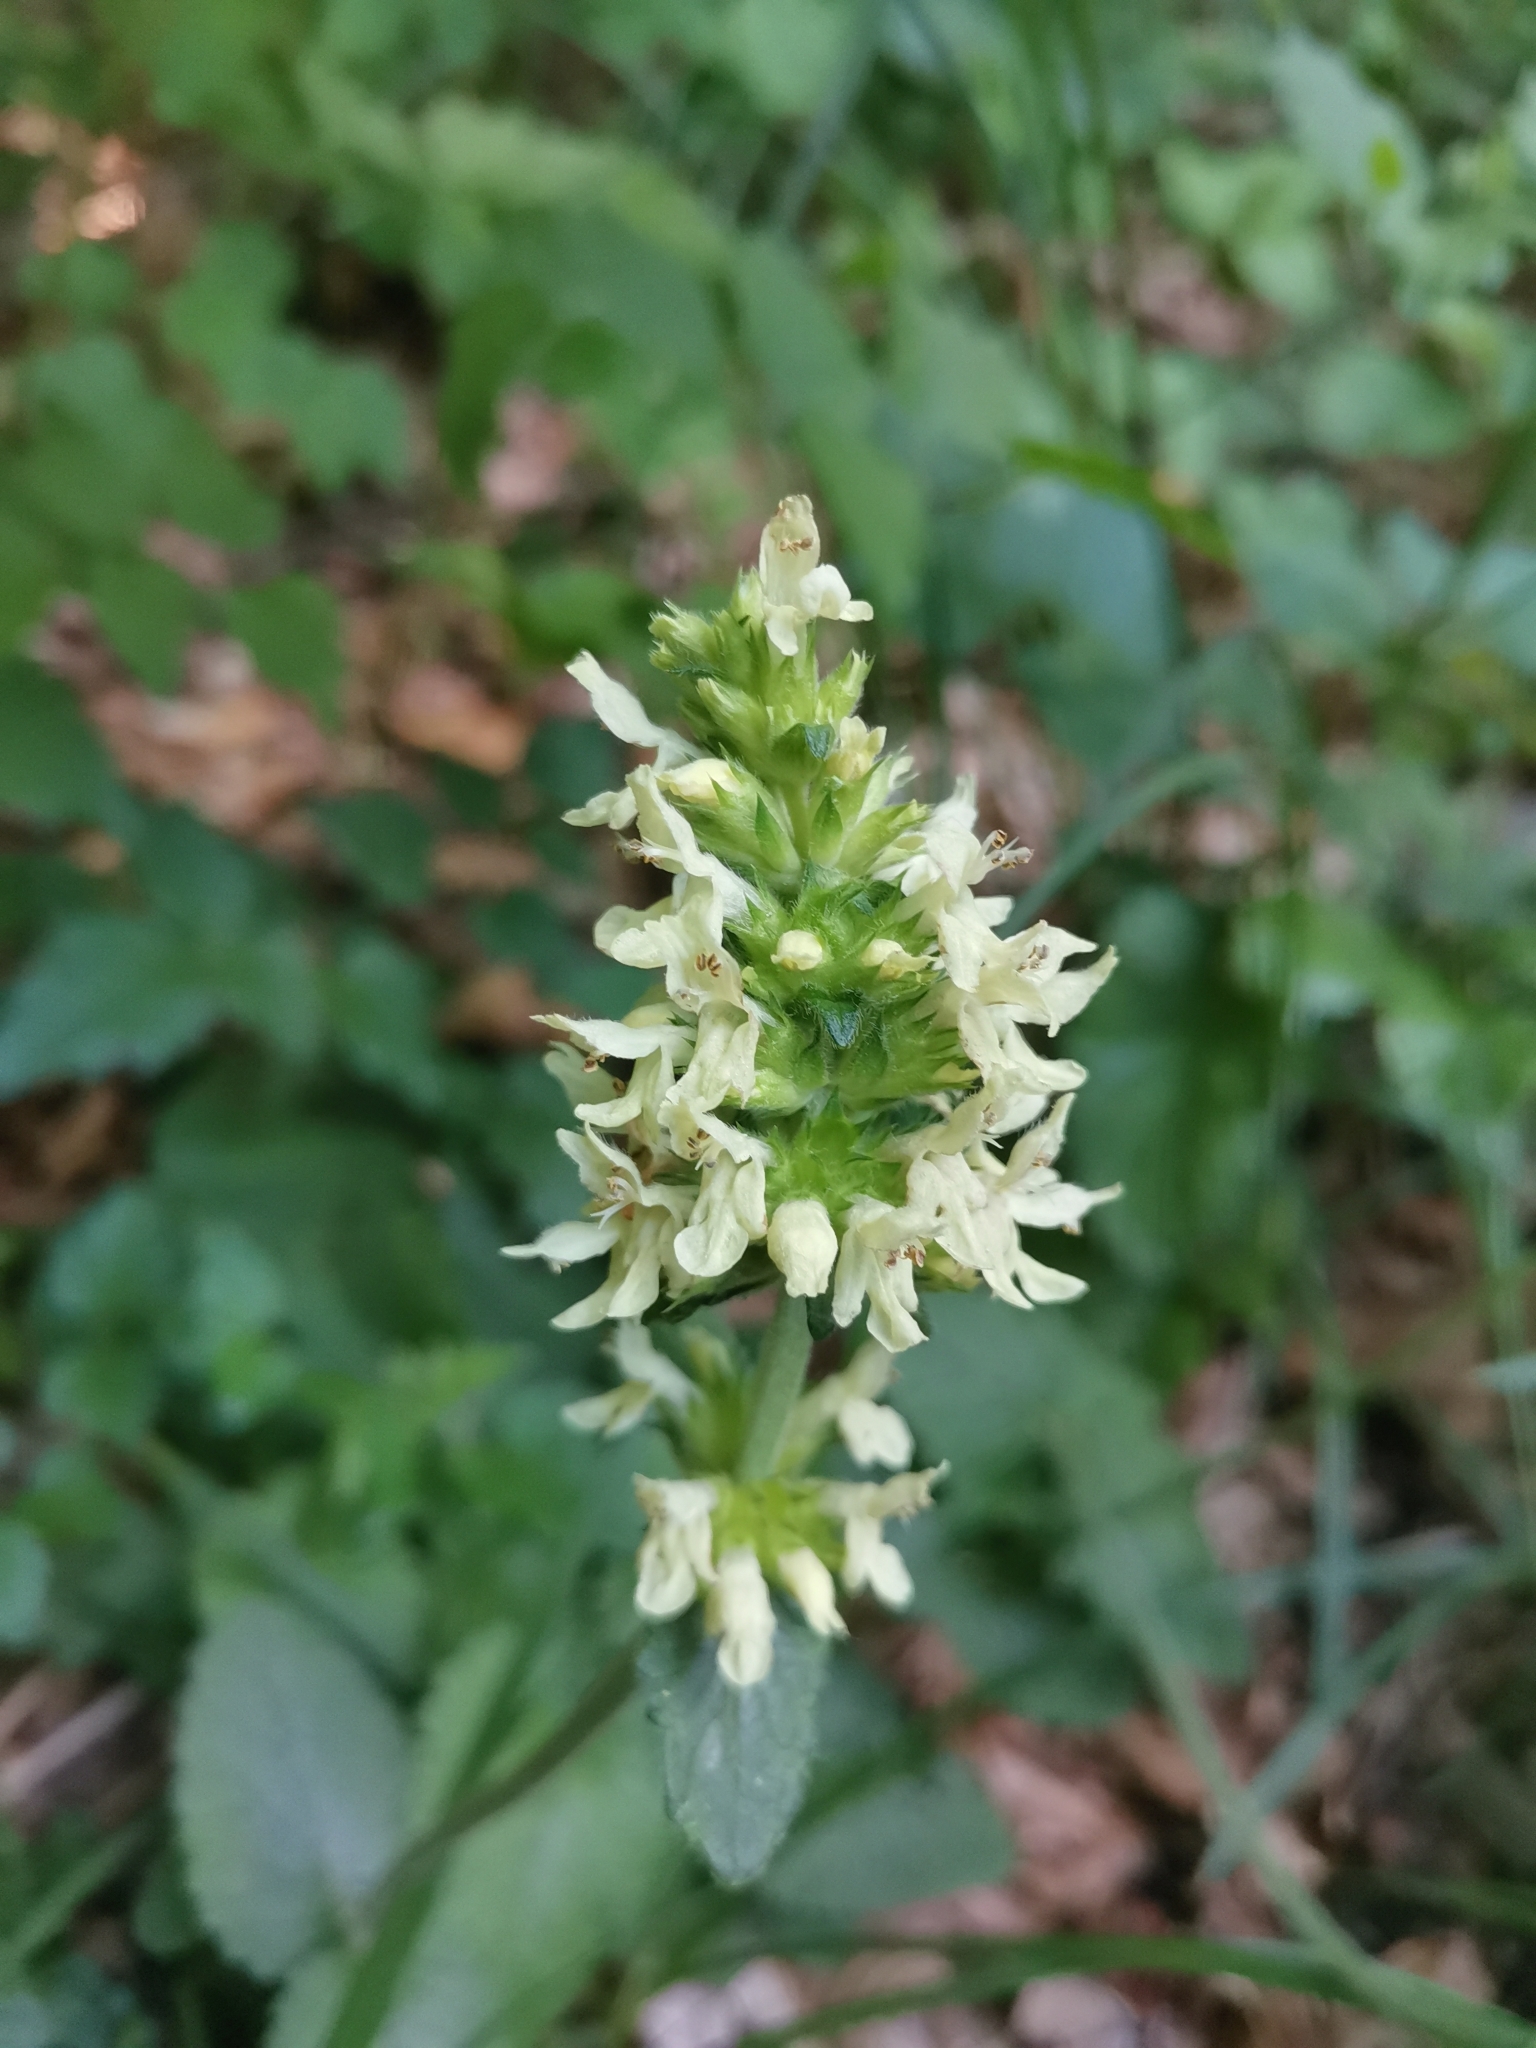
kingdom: Plantae
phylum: Tracheophyta
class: Magnoliopsida
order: Lamiales
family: Lamiaceae
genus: Betonica
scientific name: Betonica alopecuros
